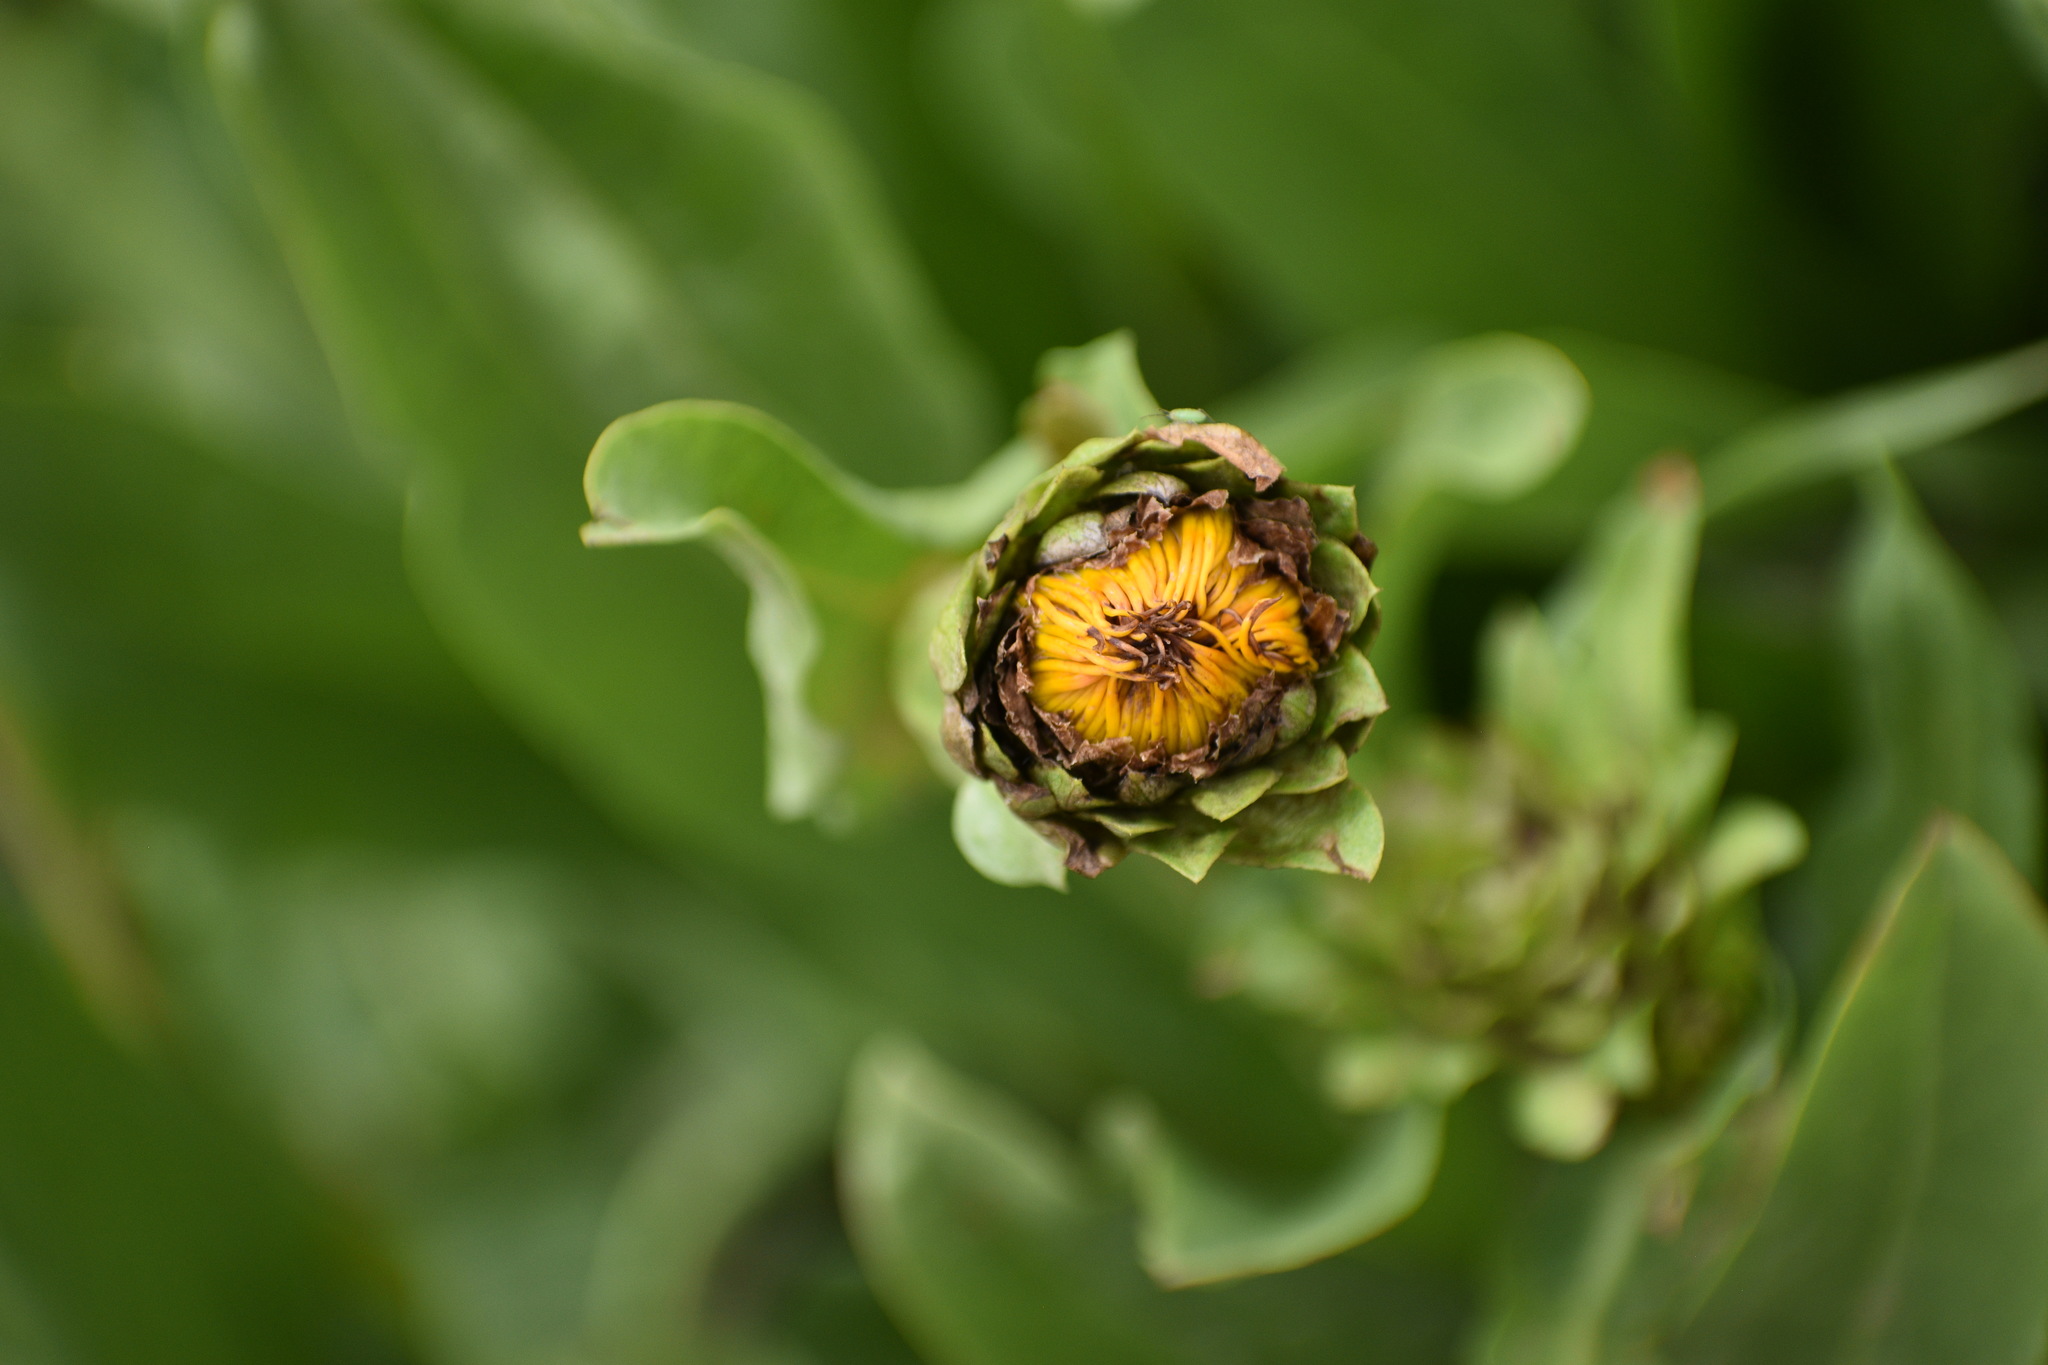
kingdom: Plantae
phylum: Tracheophyta
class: Magnoliopsida
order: Asterales
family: Asteraceae
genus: Pyrrocoma
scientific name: Pyrrocoma crocea
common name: Curly-head goldenweed
